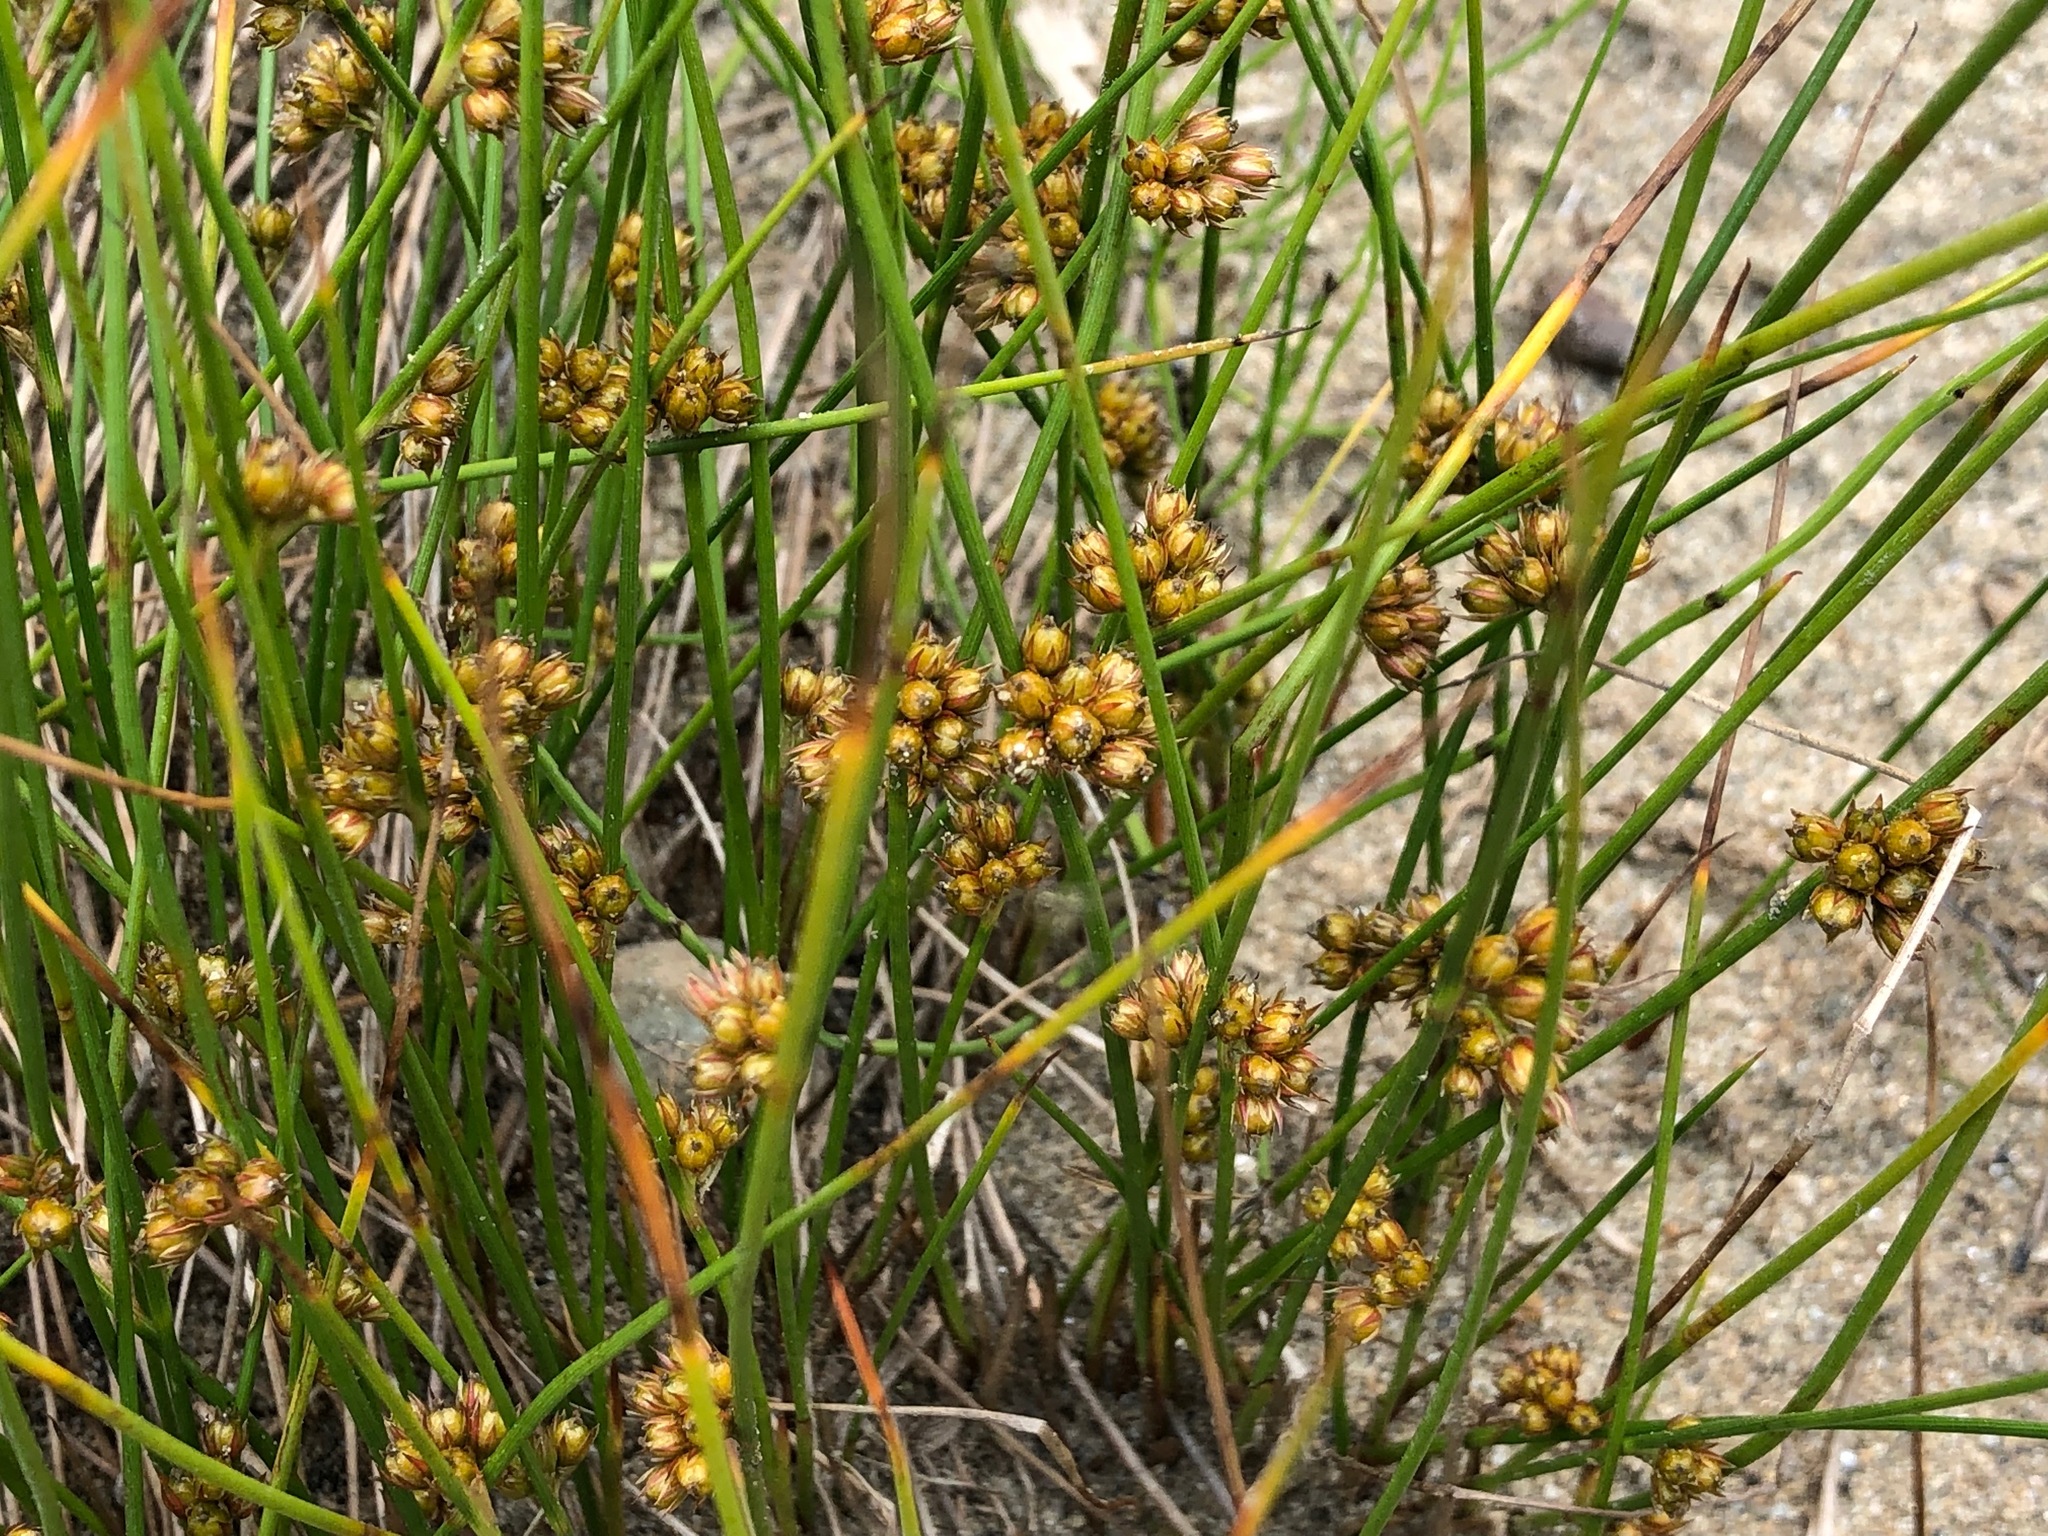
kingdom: Plantae
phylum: Tracheophyta
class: Liliopsida
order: Poales
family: Juncaceae
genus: Juncus
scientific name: Juncus filiformis
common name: Thread rush
